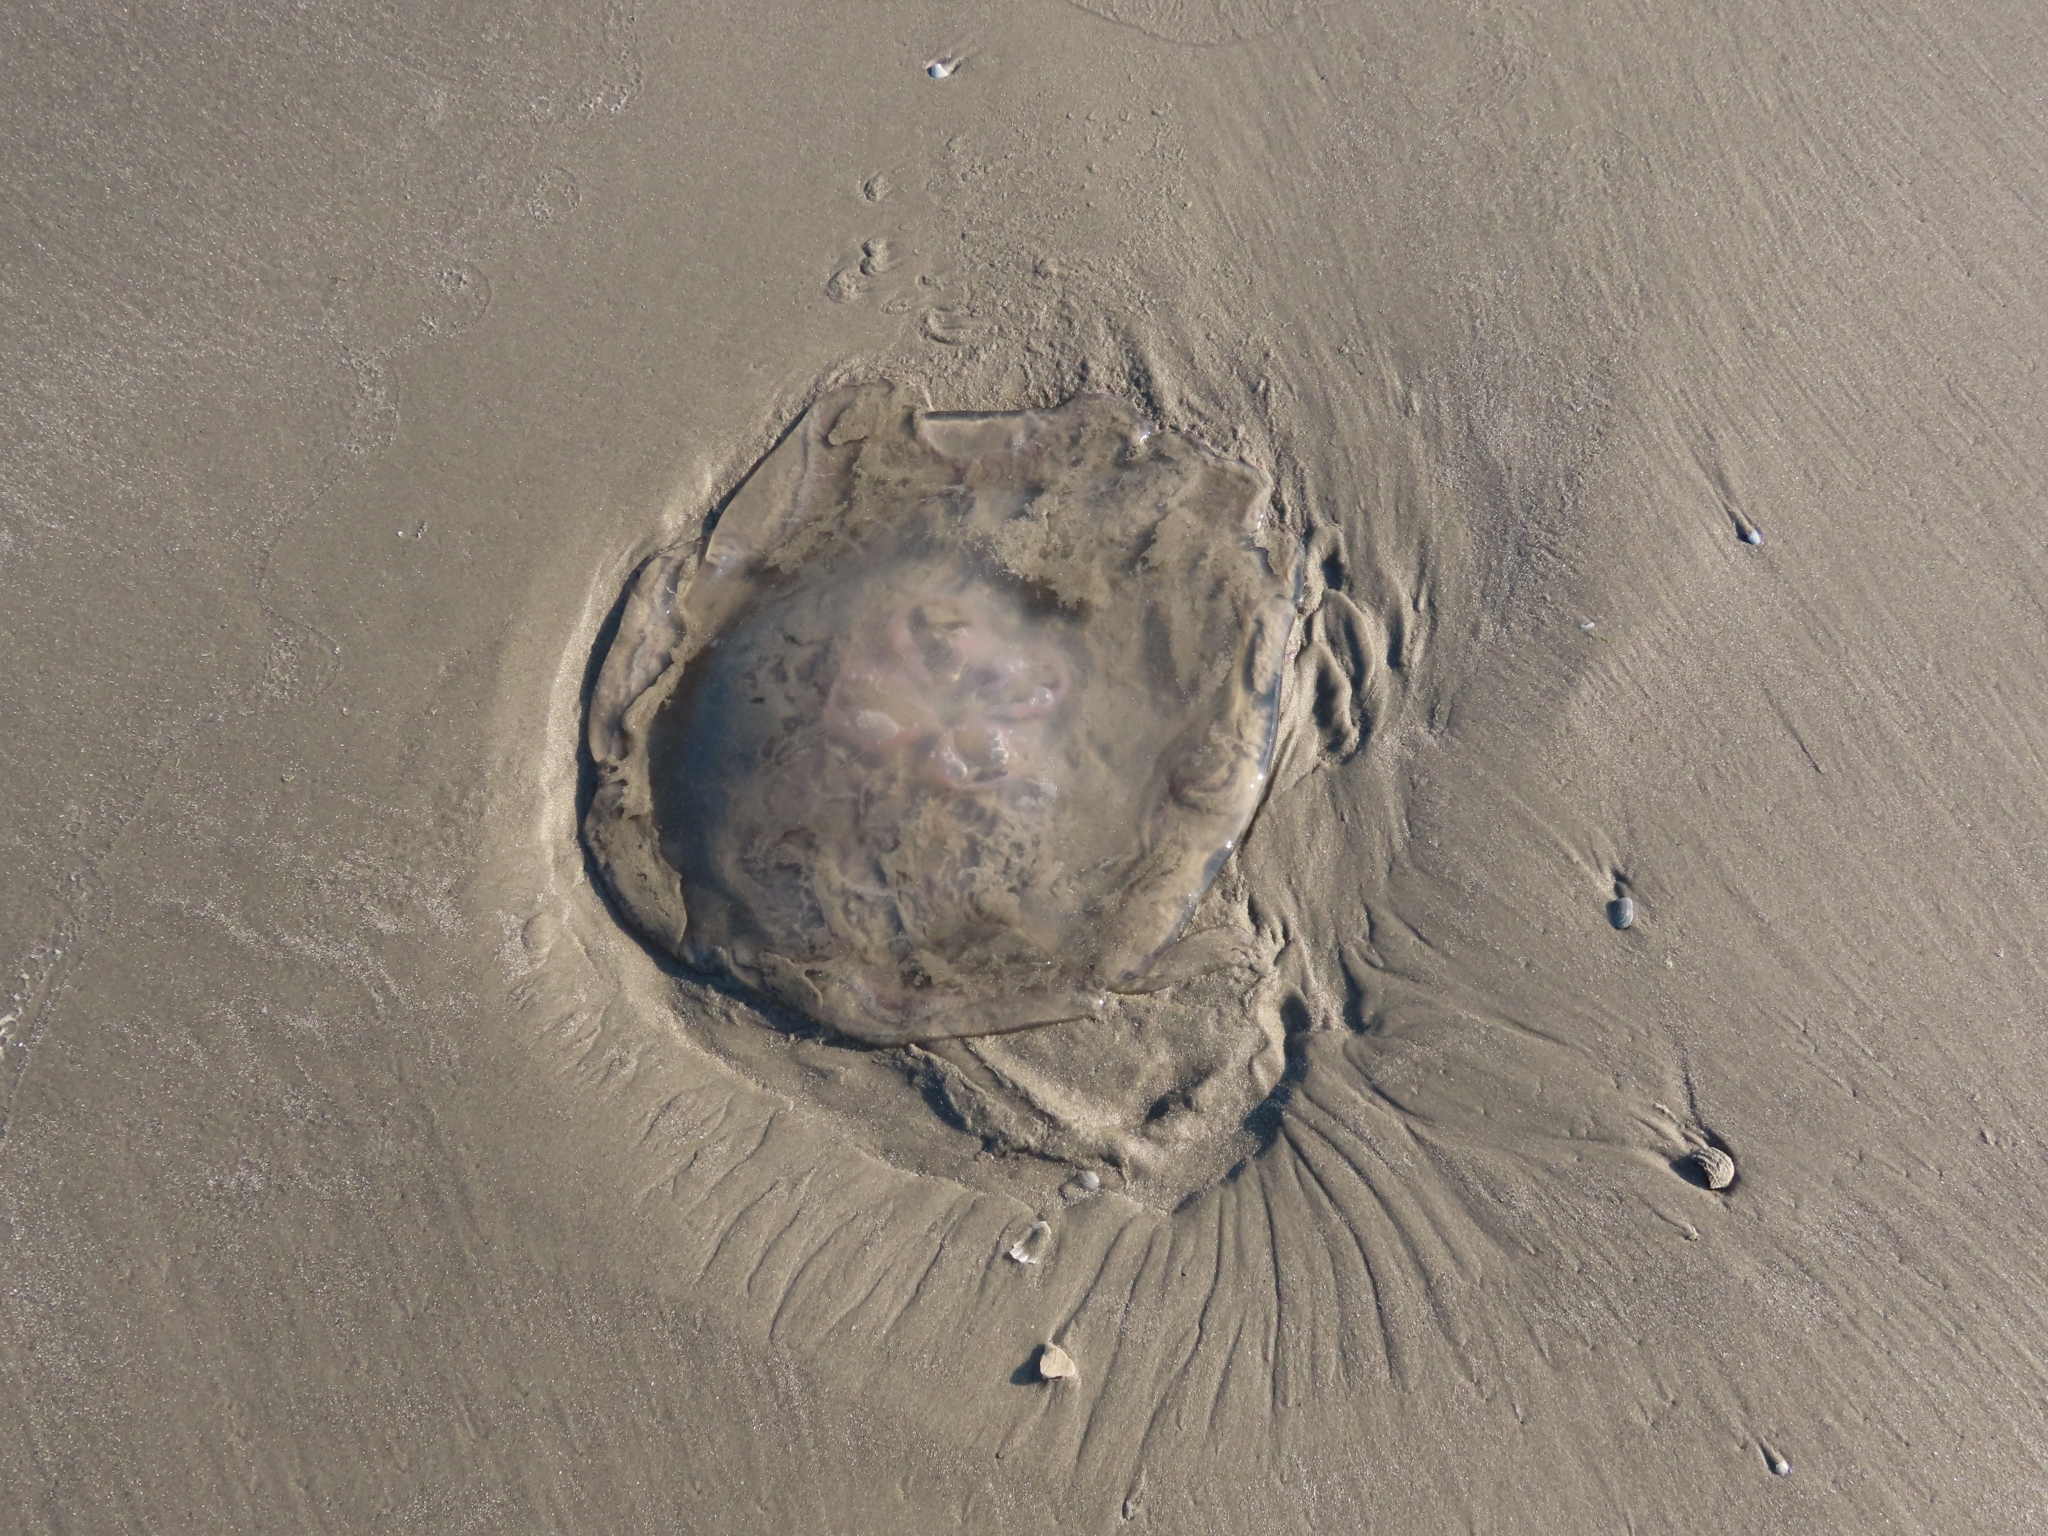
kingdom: Animalia
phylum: Cnidaria
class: Scyphozoa
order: Semaeostomeae
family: Ulmaridae
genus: Aurelia
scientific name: Aurelia marginalis
